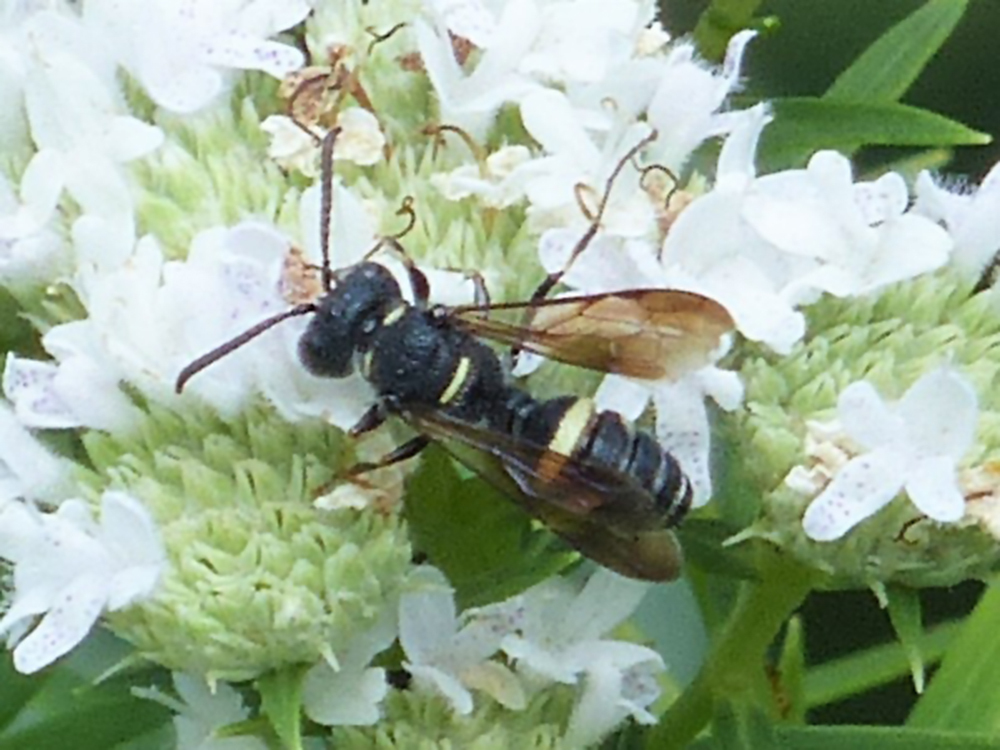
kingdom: Animalia
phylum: Arthropoda
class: Insecta
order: Hymenoptera
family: Crabronidae
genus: Cerceris
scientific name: Cerceris fumipennis
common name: Smokey-winged beetle bandit wasp
